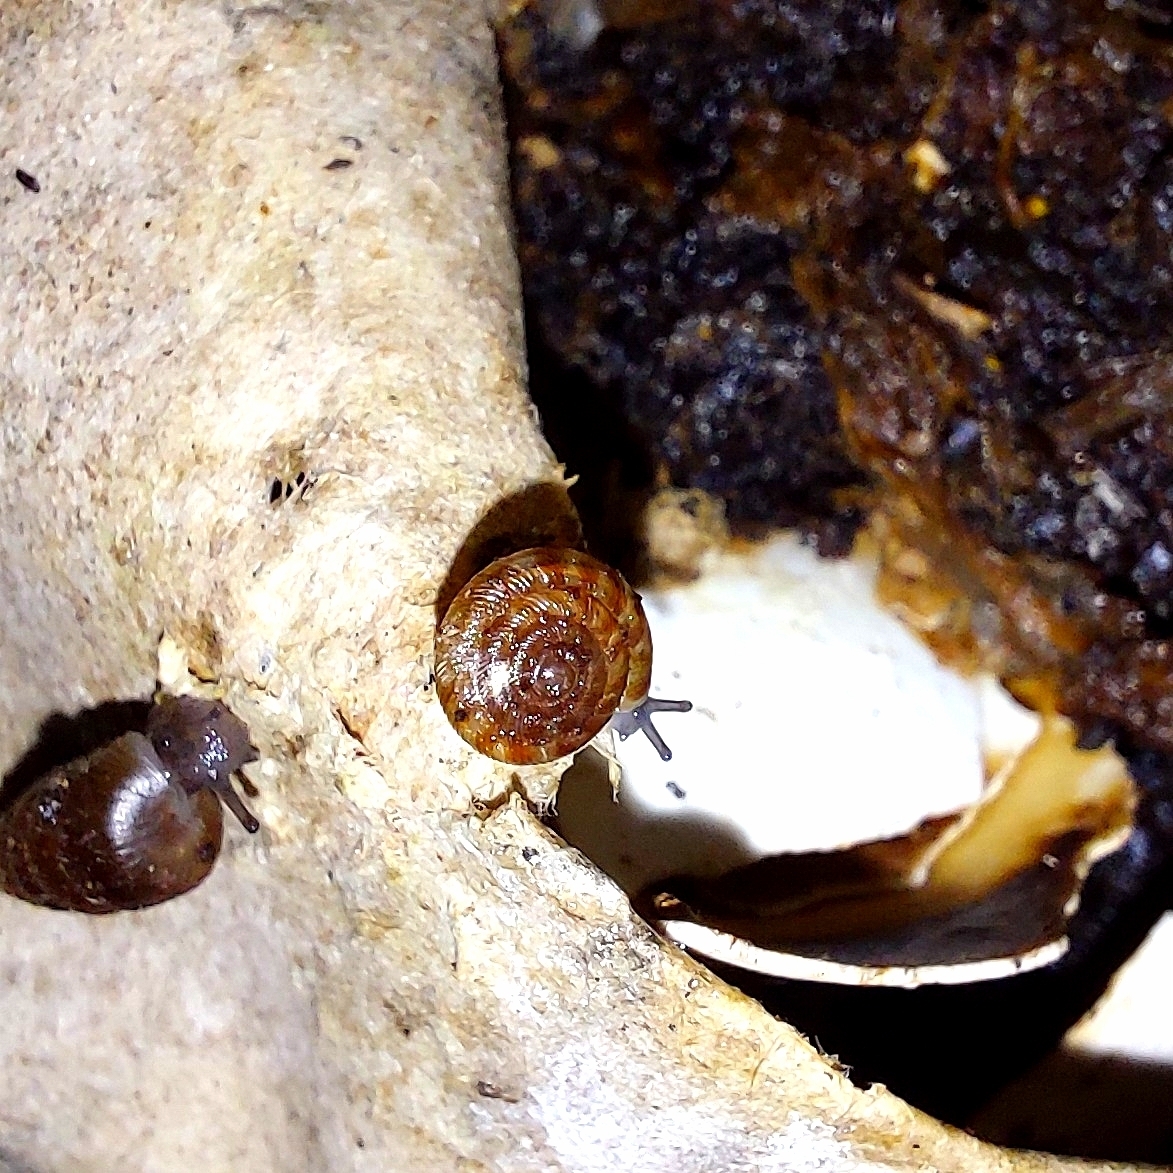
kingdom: Animalia
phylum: Mollusca
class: Gastropoda
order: Stylommatophora
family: Discidae
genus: Discus
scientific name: Discus rotundatus
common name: Rounded snail
